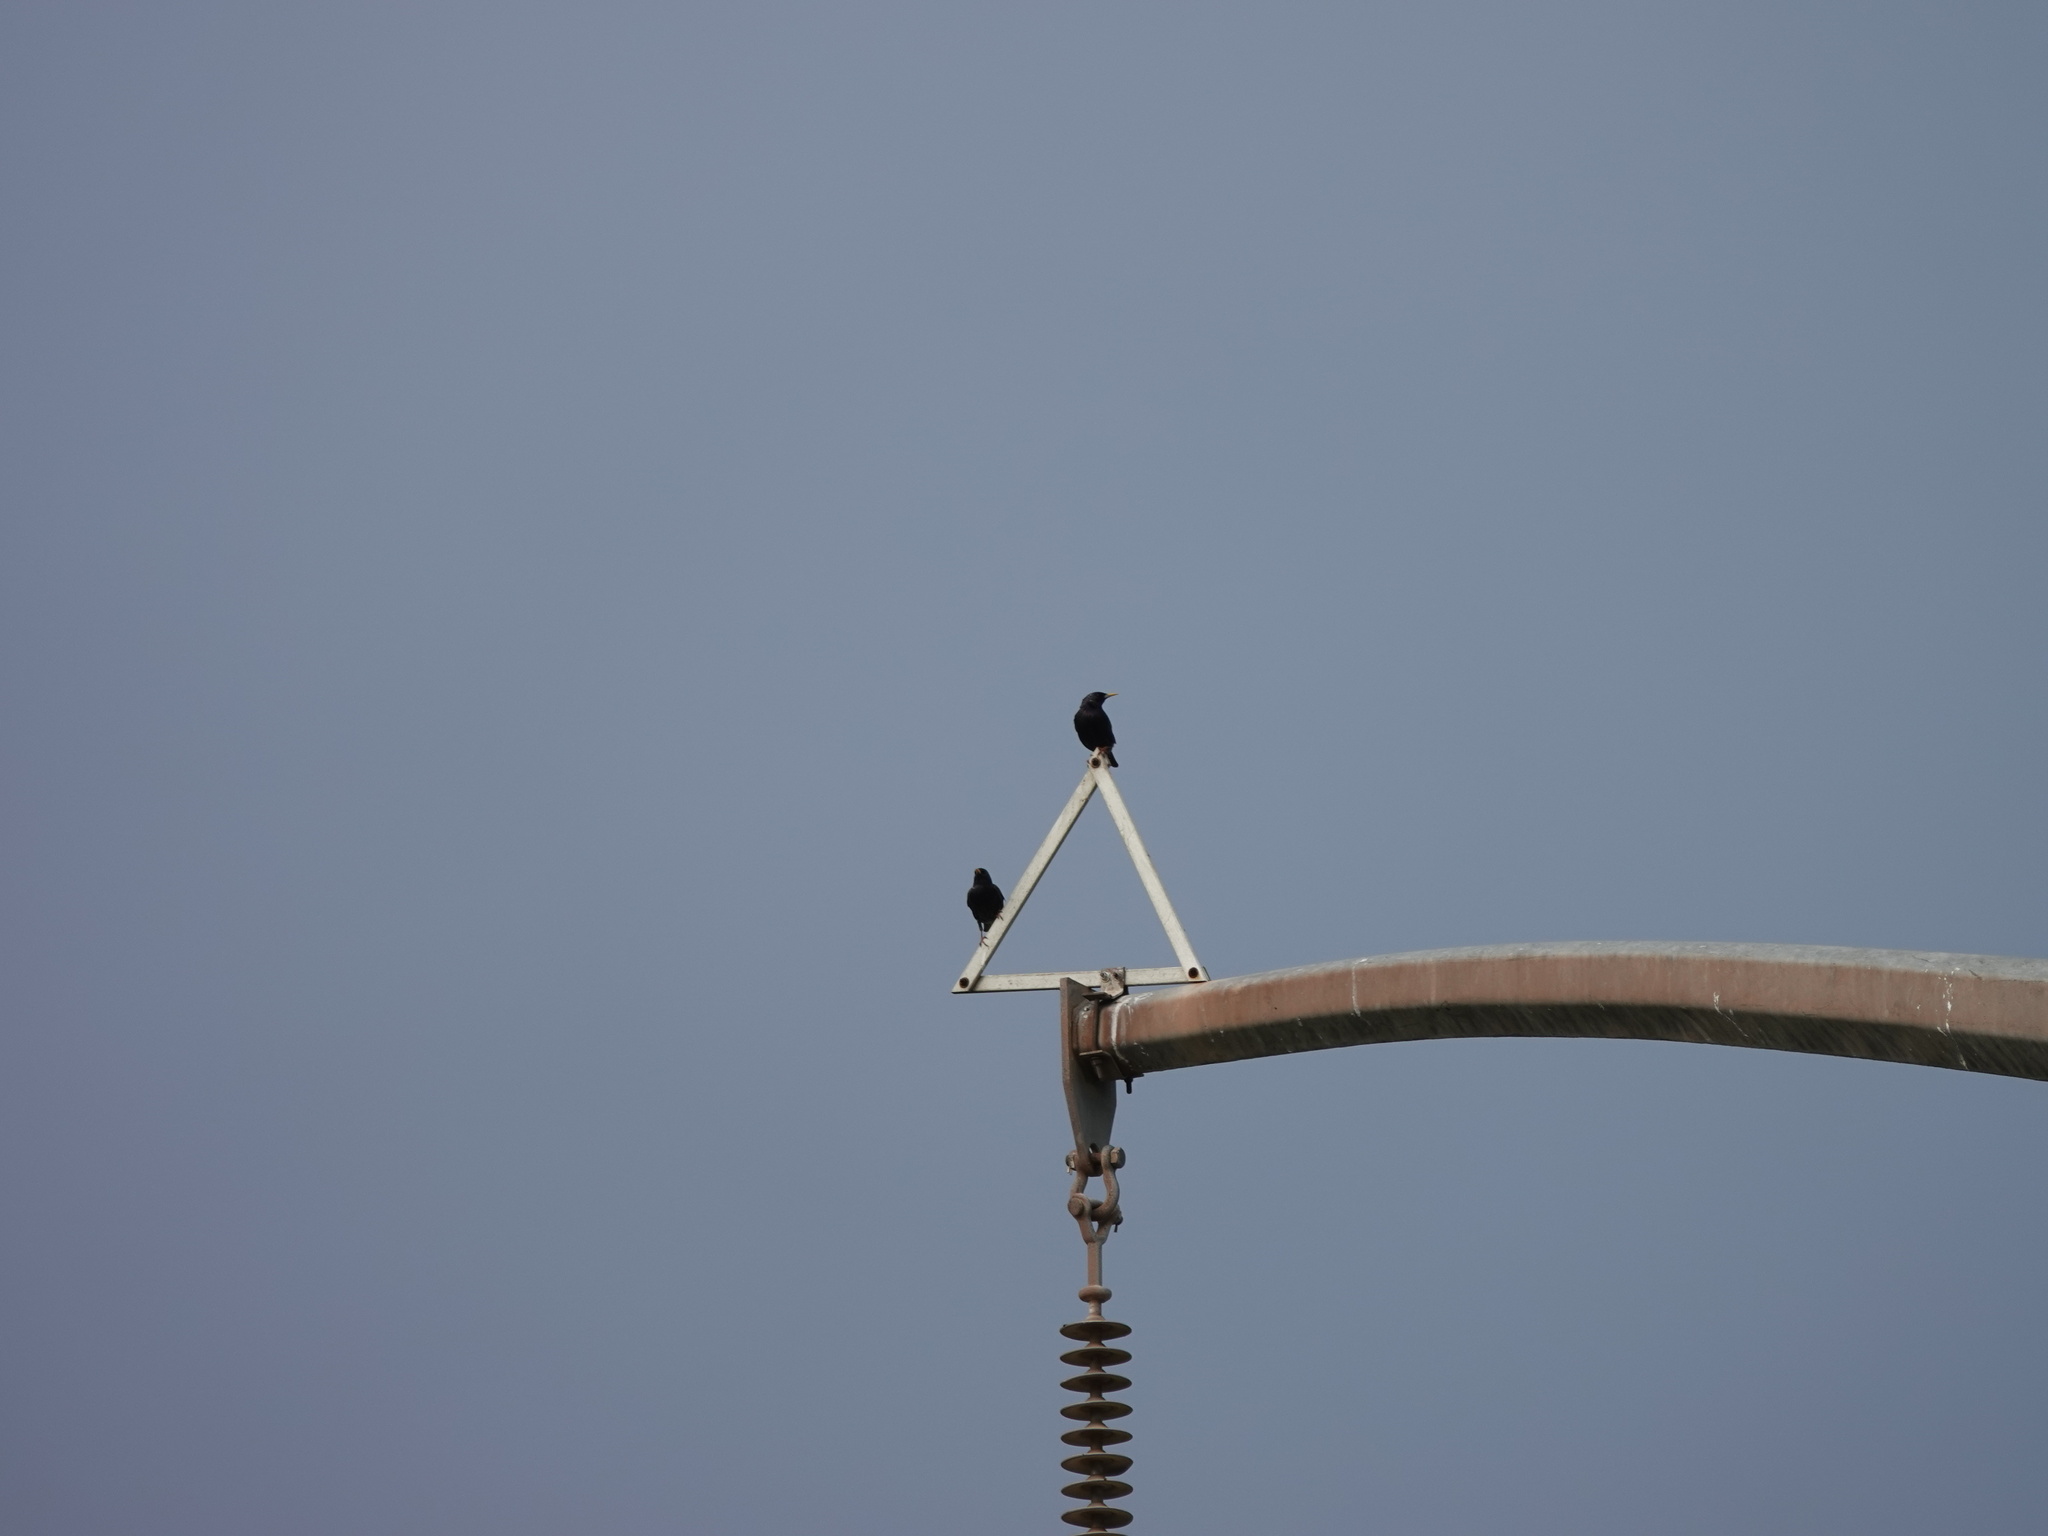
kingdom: Animalia
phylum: Chordata
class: Aves
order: Passeriformes
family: Sturnidae
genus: Sturnus
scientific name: Sturnus vulgaris
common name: Common starling
